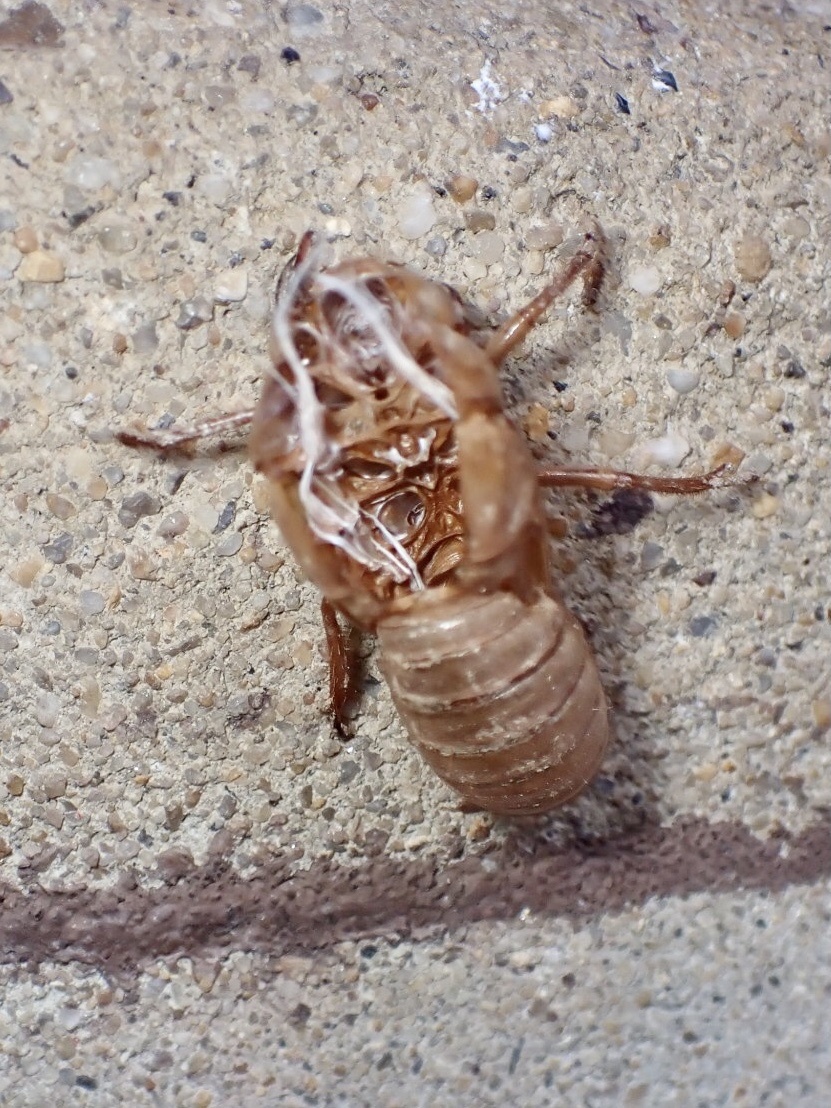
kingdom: Animalia
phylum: Arthropoda
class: Insecta
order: Hemiptera
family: Cicadidae
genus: Magicicada
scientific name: Magicicada
